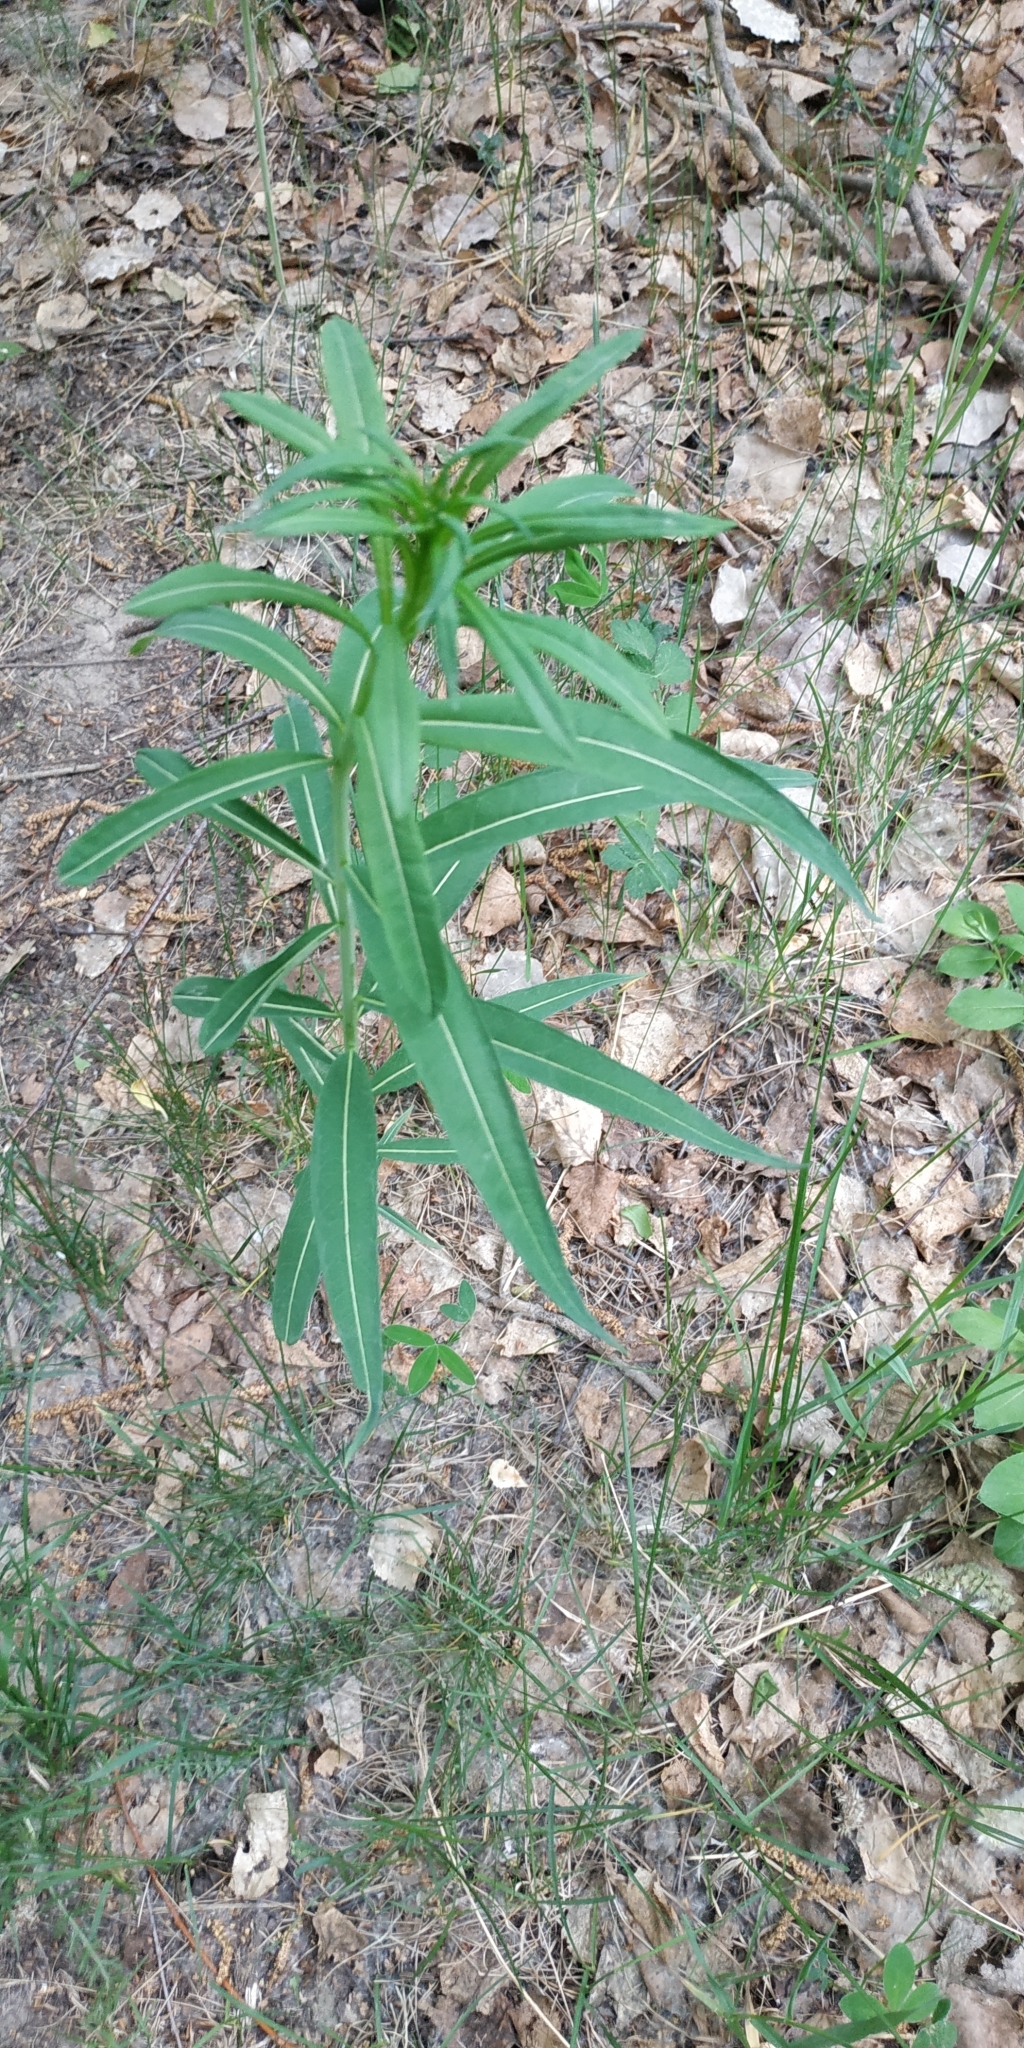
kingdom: Plantae
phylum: Tracheophyta
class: Magnoliopsida
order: Myrtales
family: Onagraceae
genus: Chamaenerion
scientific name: Chamaenerion angustifolium
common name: Fireweed
